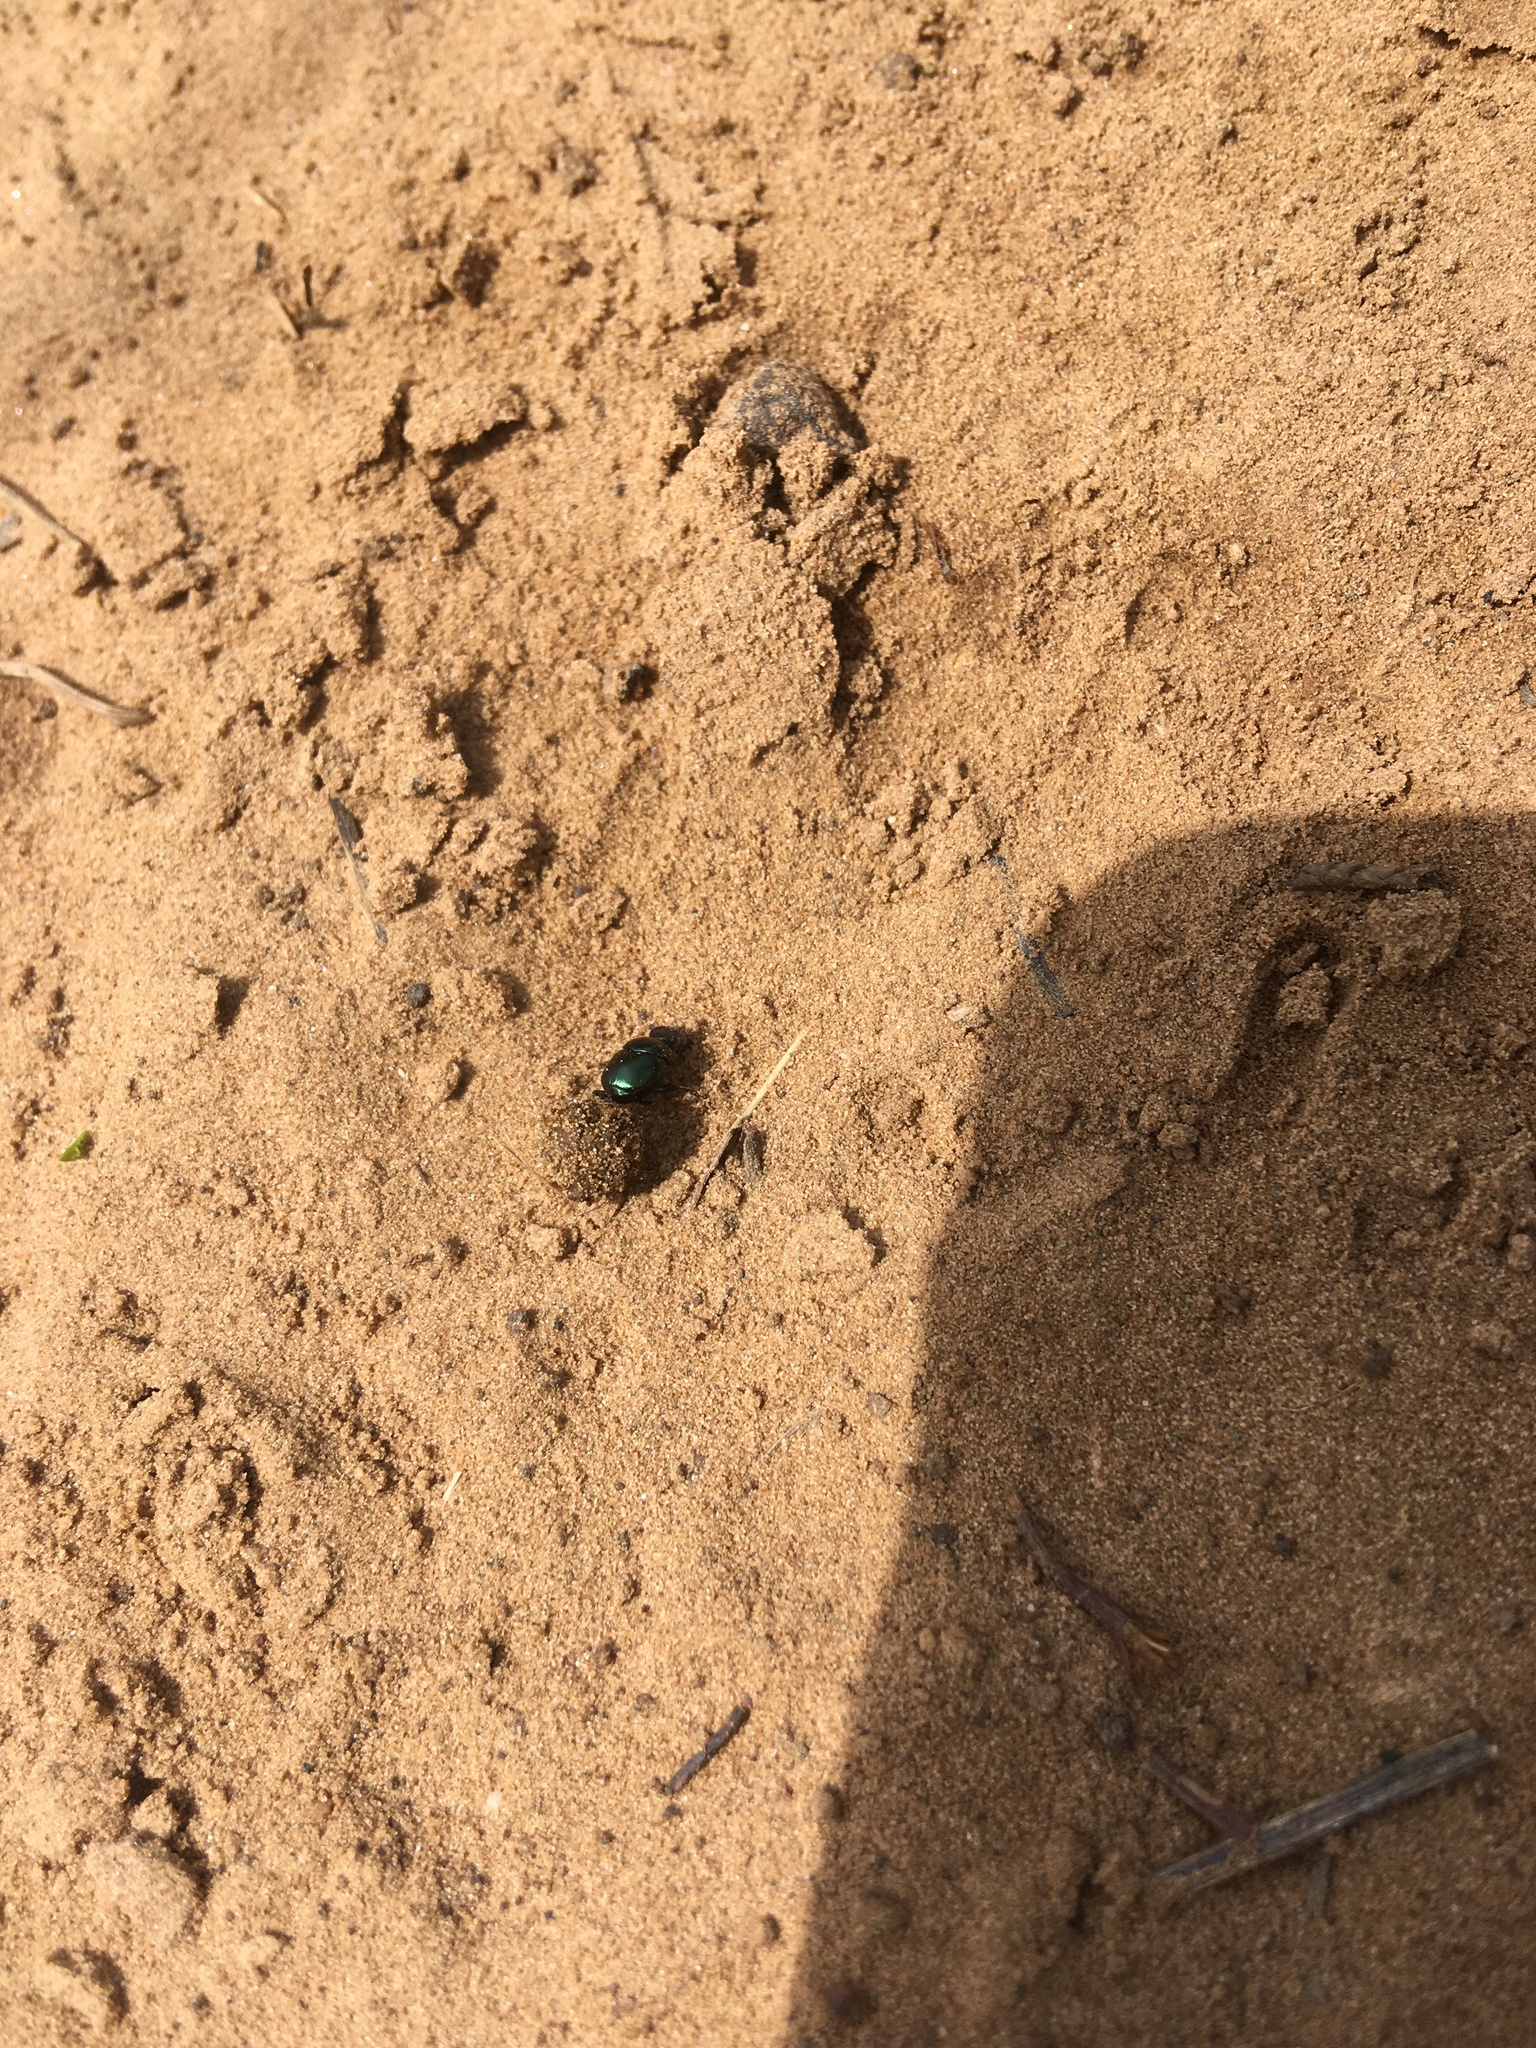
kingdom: Animalia
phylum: Arthropoda
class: Insecta
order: Coleoptera
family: Scarabaeidae
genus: Canthon
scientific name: Canthon viridis
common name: Tumblebug
